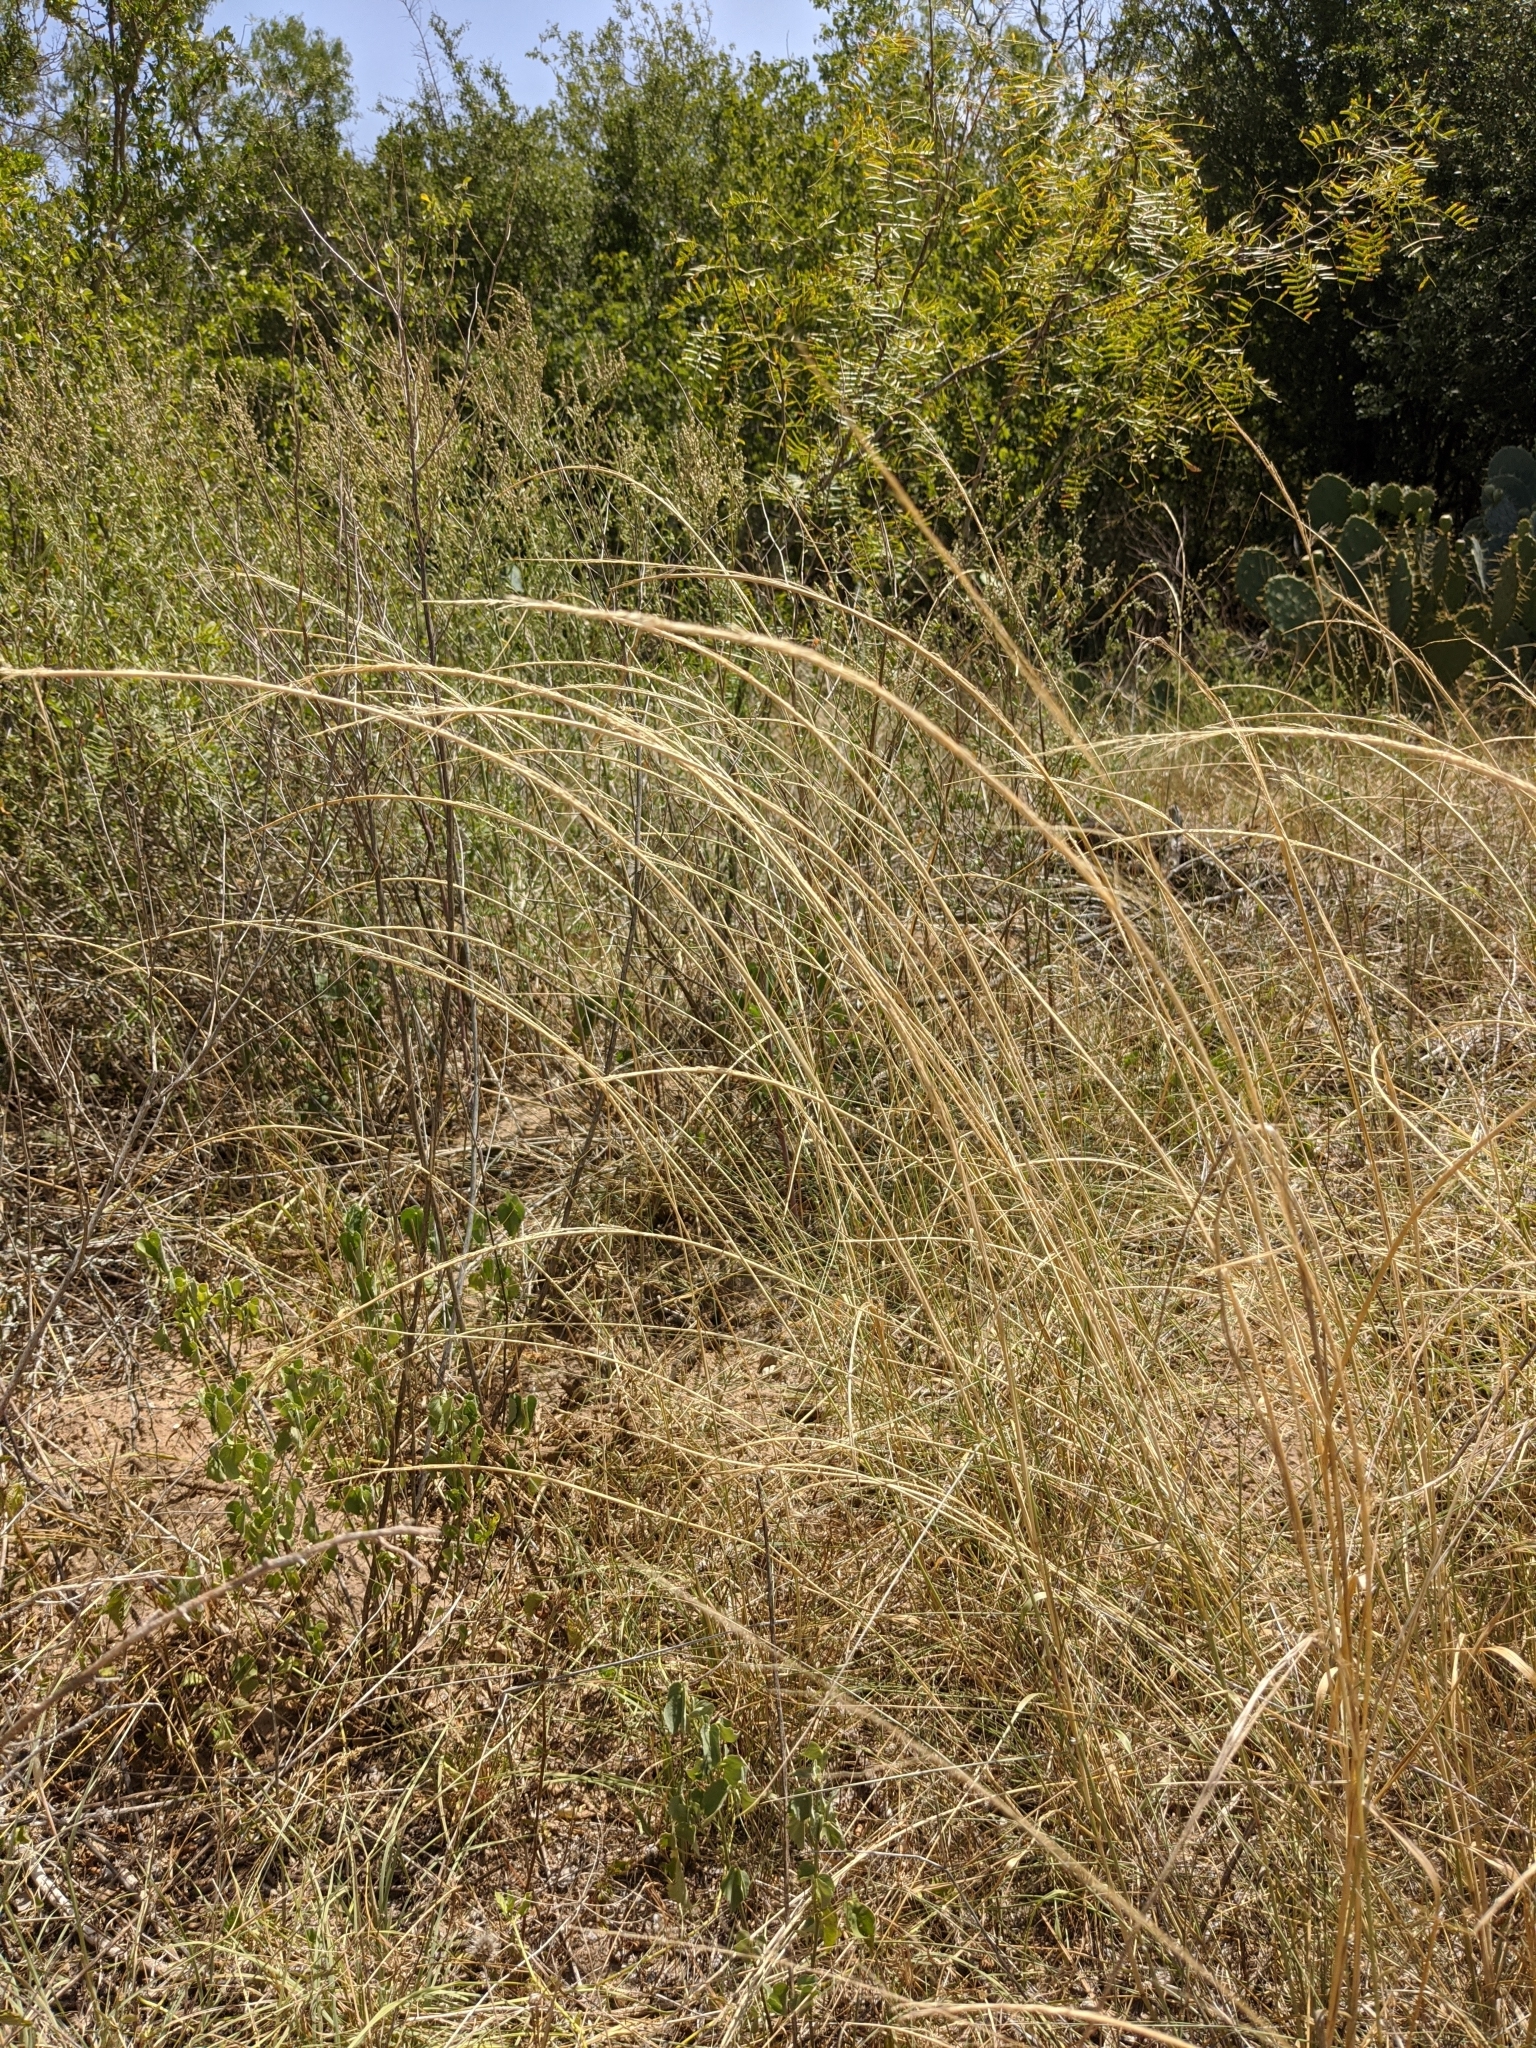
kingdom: Plantae
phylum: Tracheophyta
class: Liliopsida
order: Poales
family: Poaceae
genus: Sporobolus
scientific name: Sporobolus cryptandrus
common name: Sand dropseed
